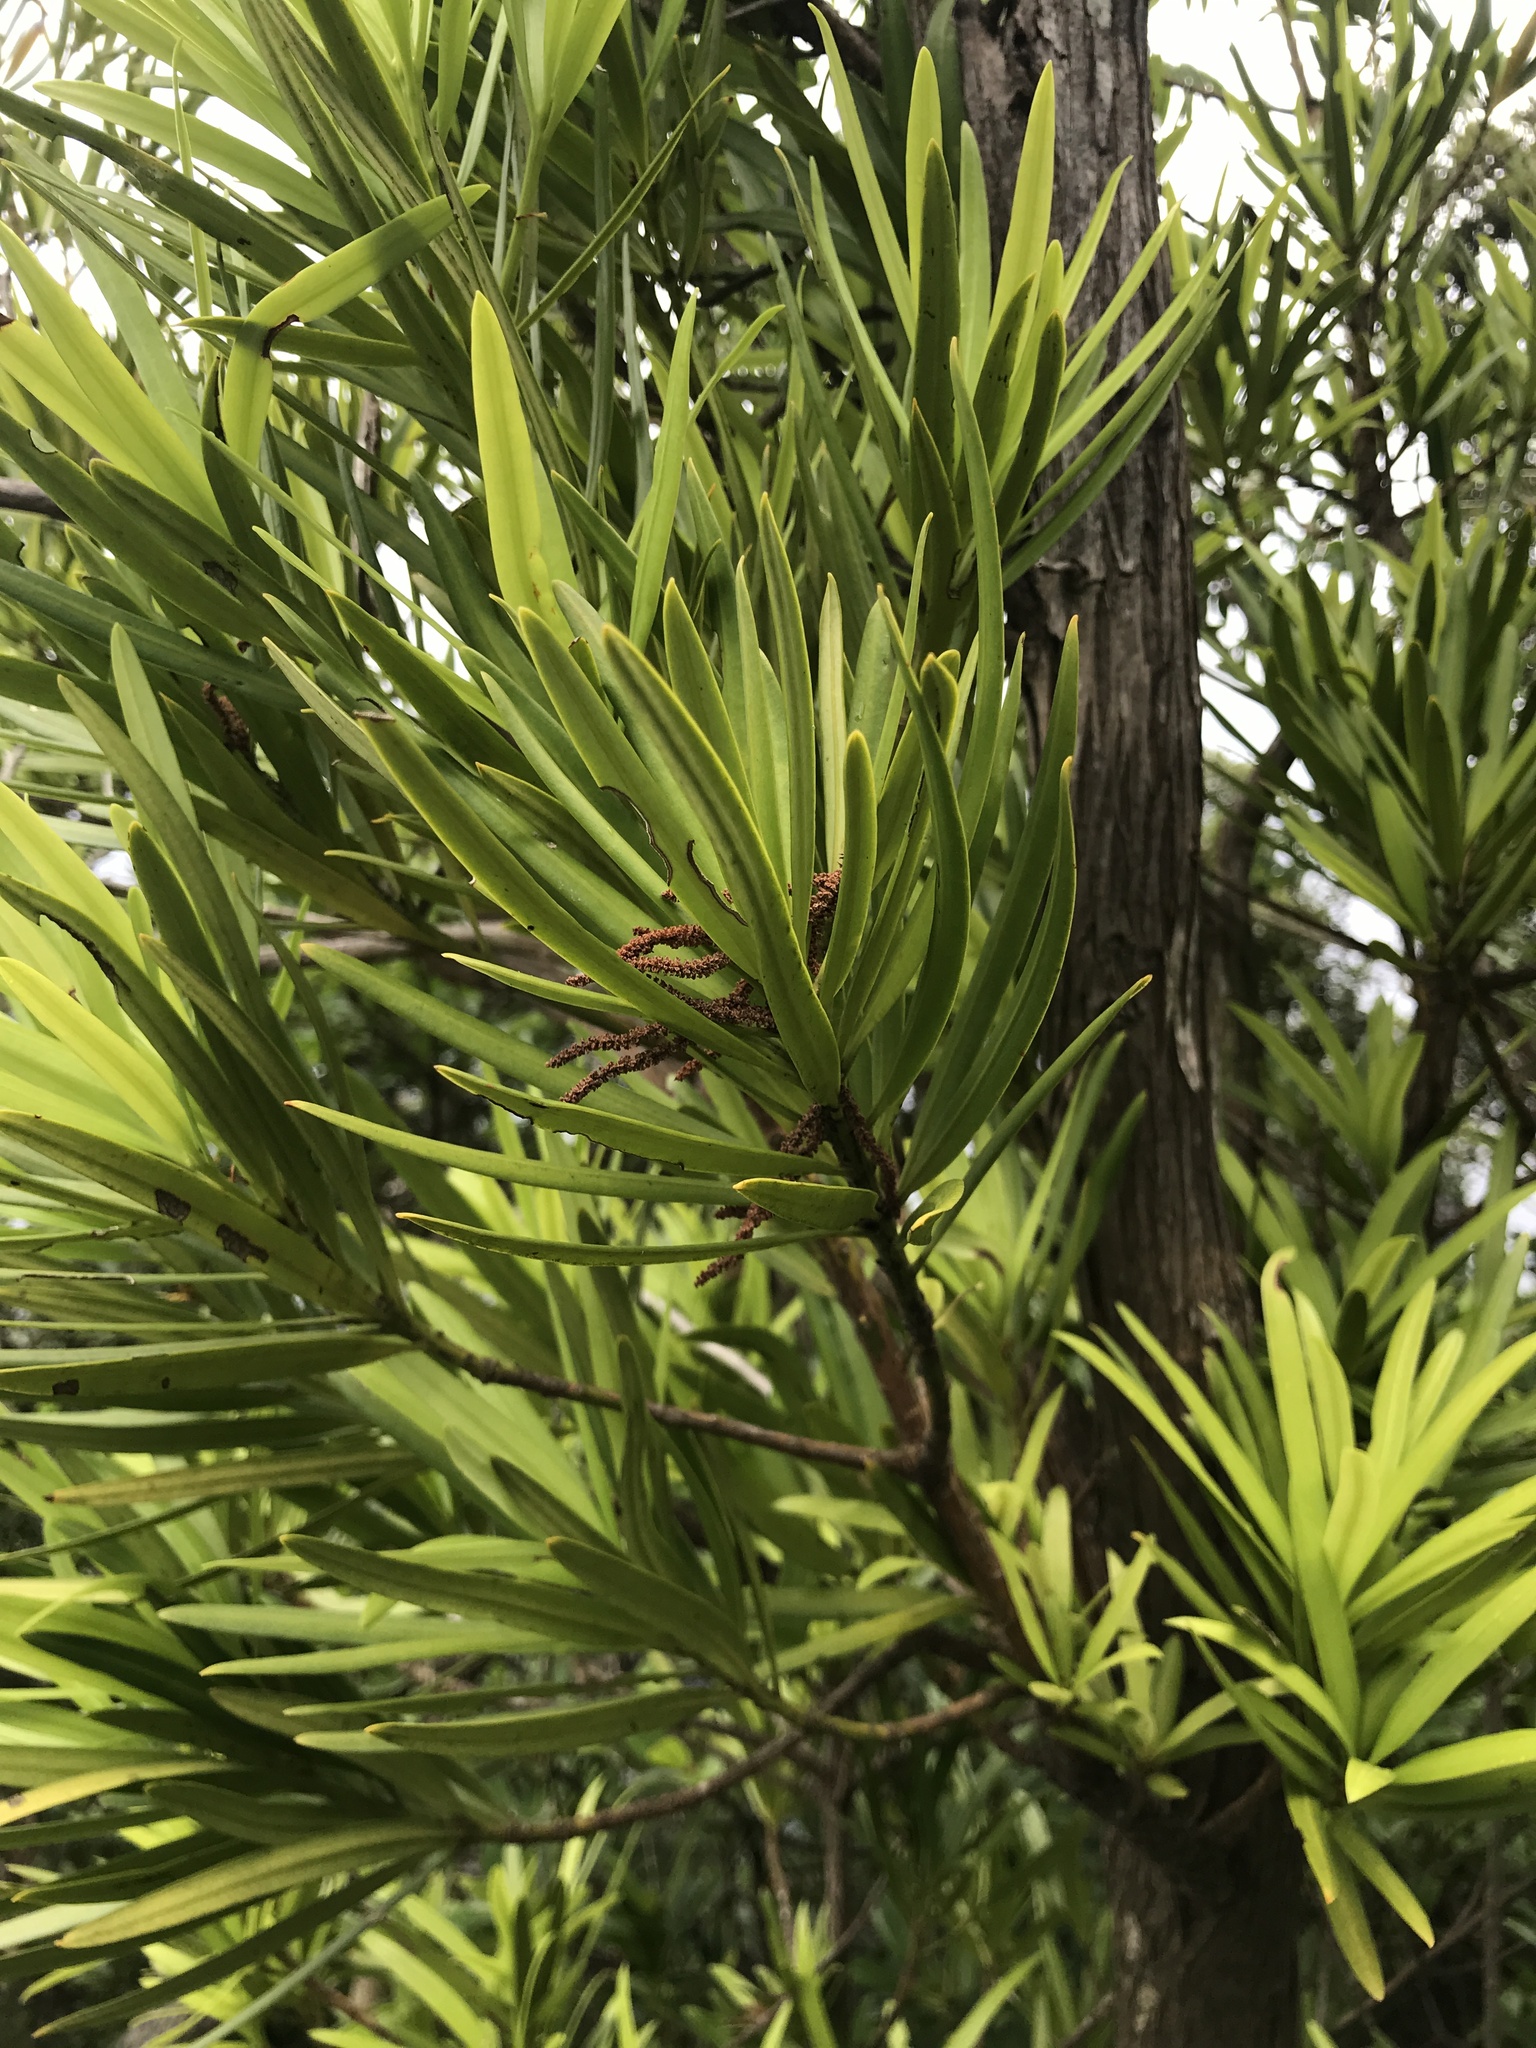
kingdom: Plantae
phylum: Tracheophyta
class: Pinopsida
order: Pinales
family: Podocarpaceae
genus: Podocarpus
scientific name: Podocarpus macrophyllus
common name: Japanese yew
